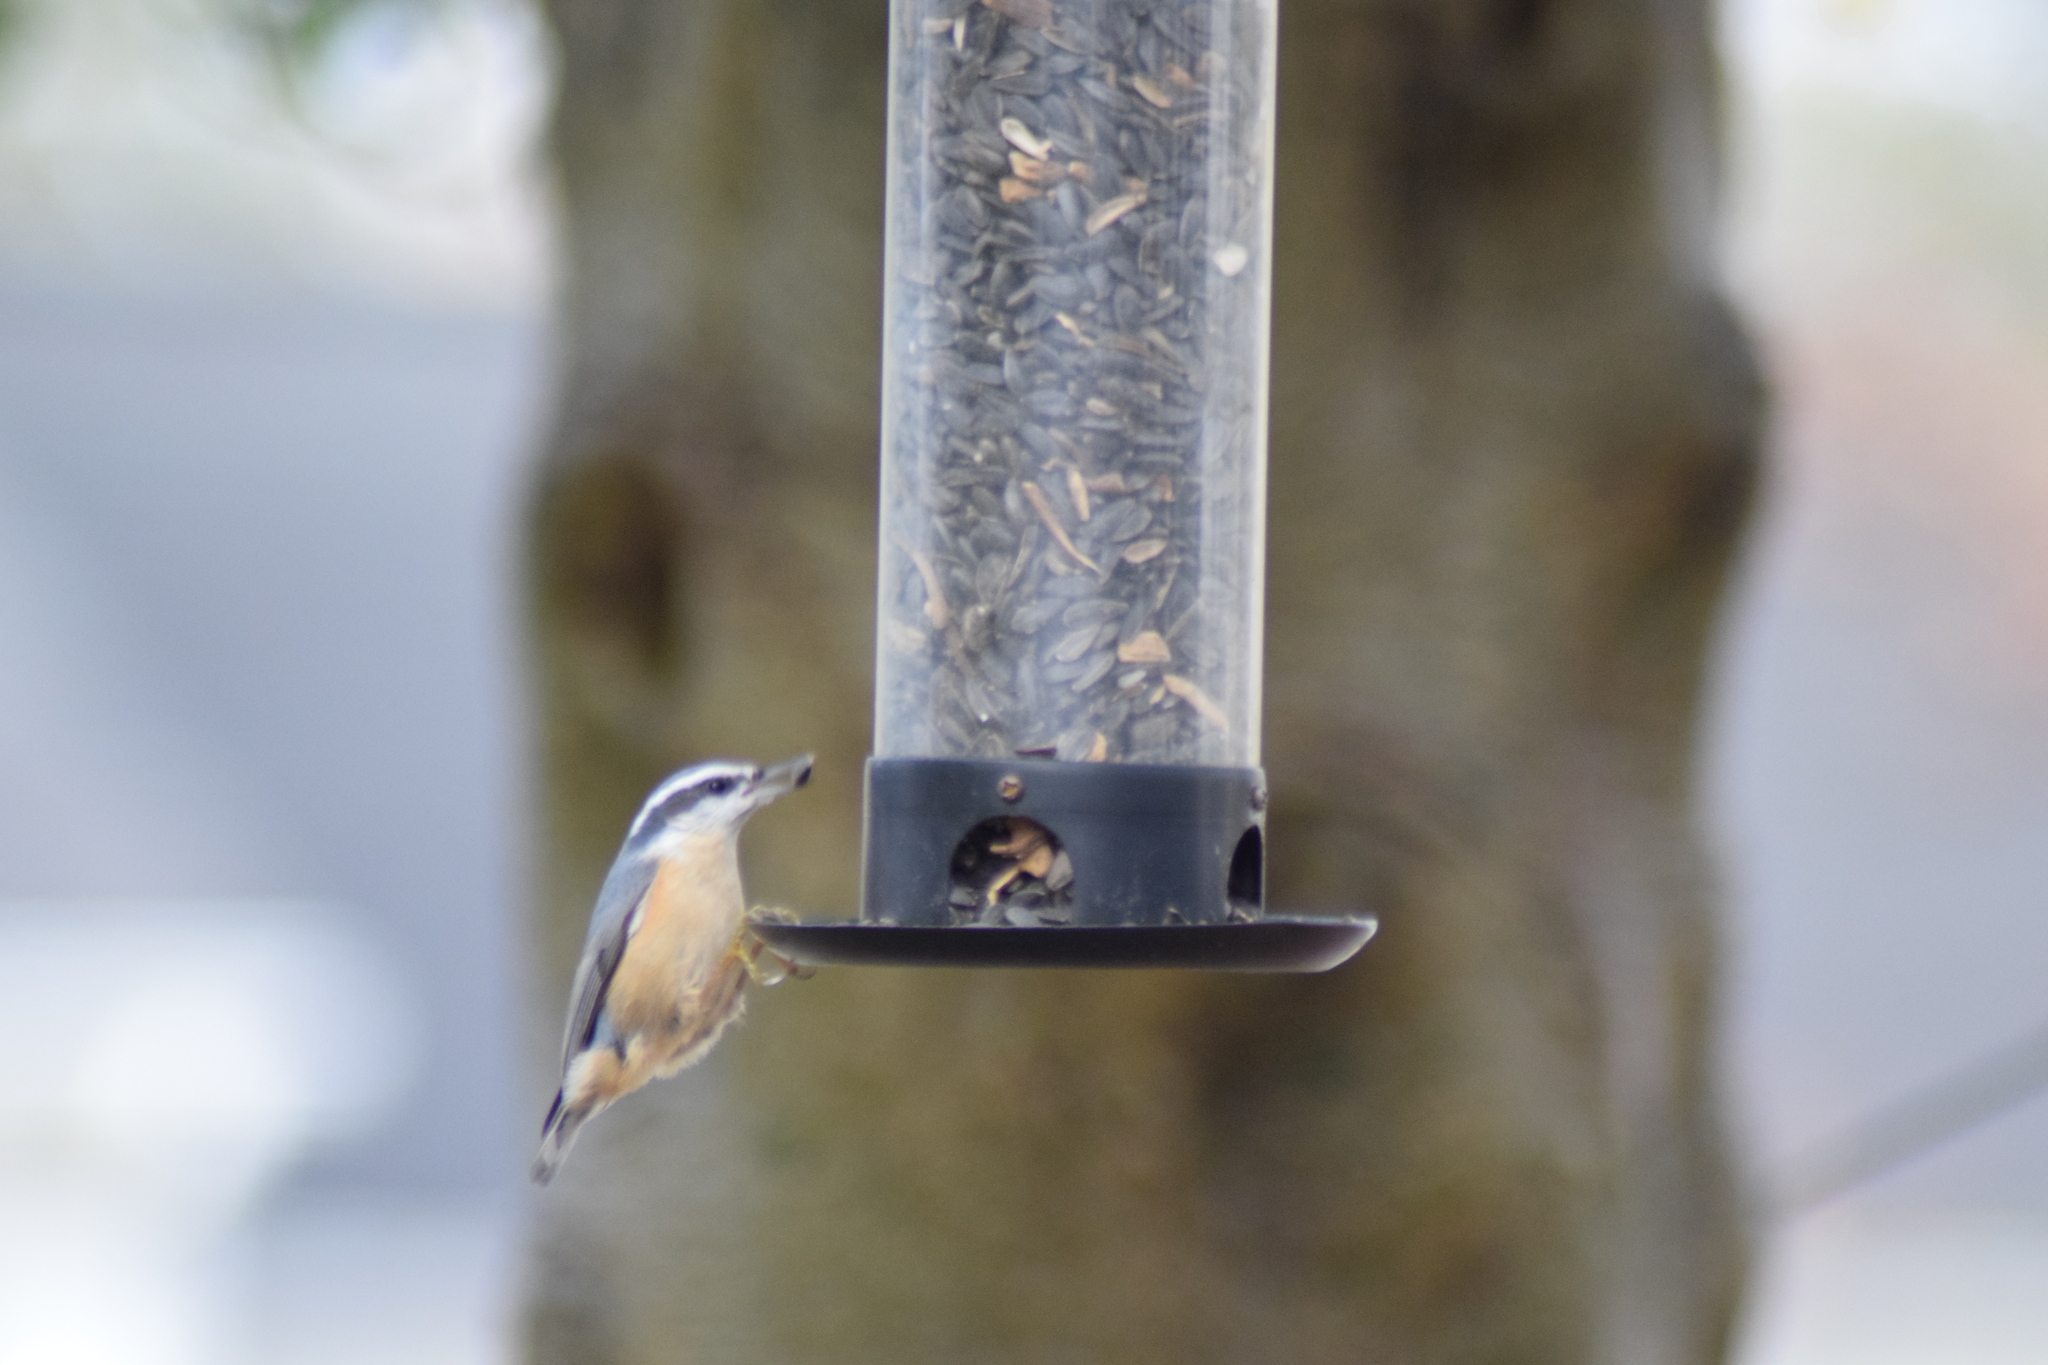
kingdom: Animalia
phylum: Chordata
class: Aves
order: Passeriformes
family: Sittidae
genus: Sitta
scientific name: Sitta canadensis
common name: Red-breasted nuthatch
